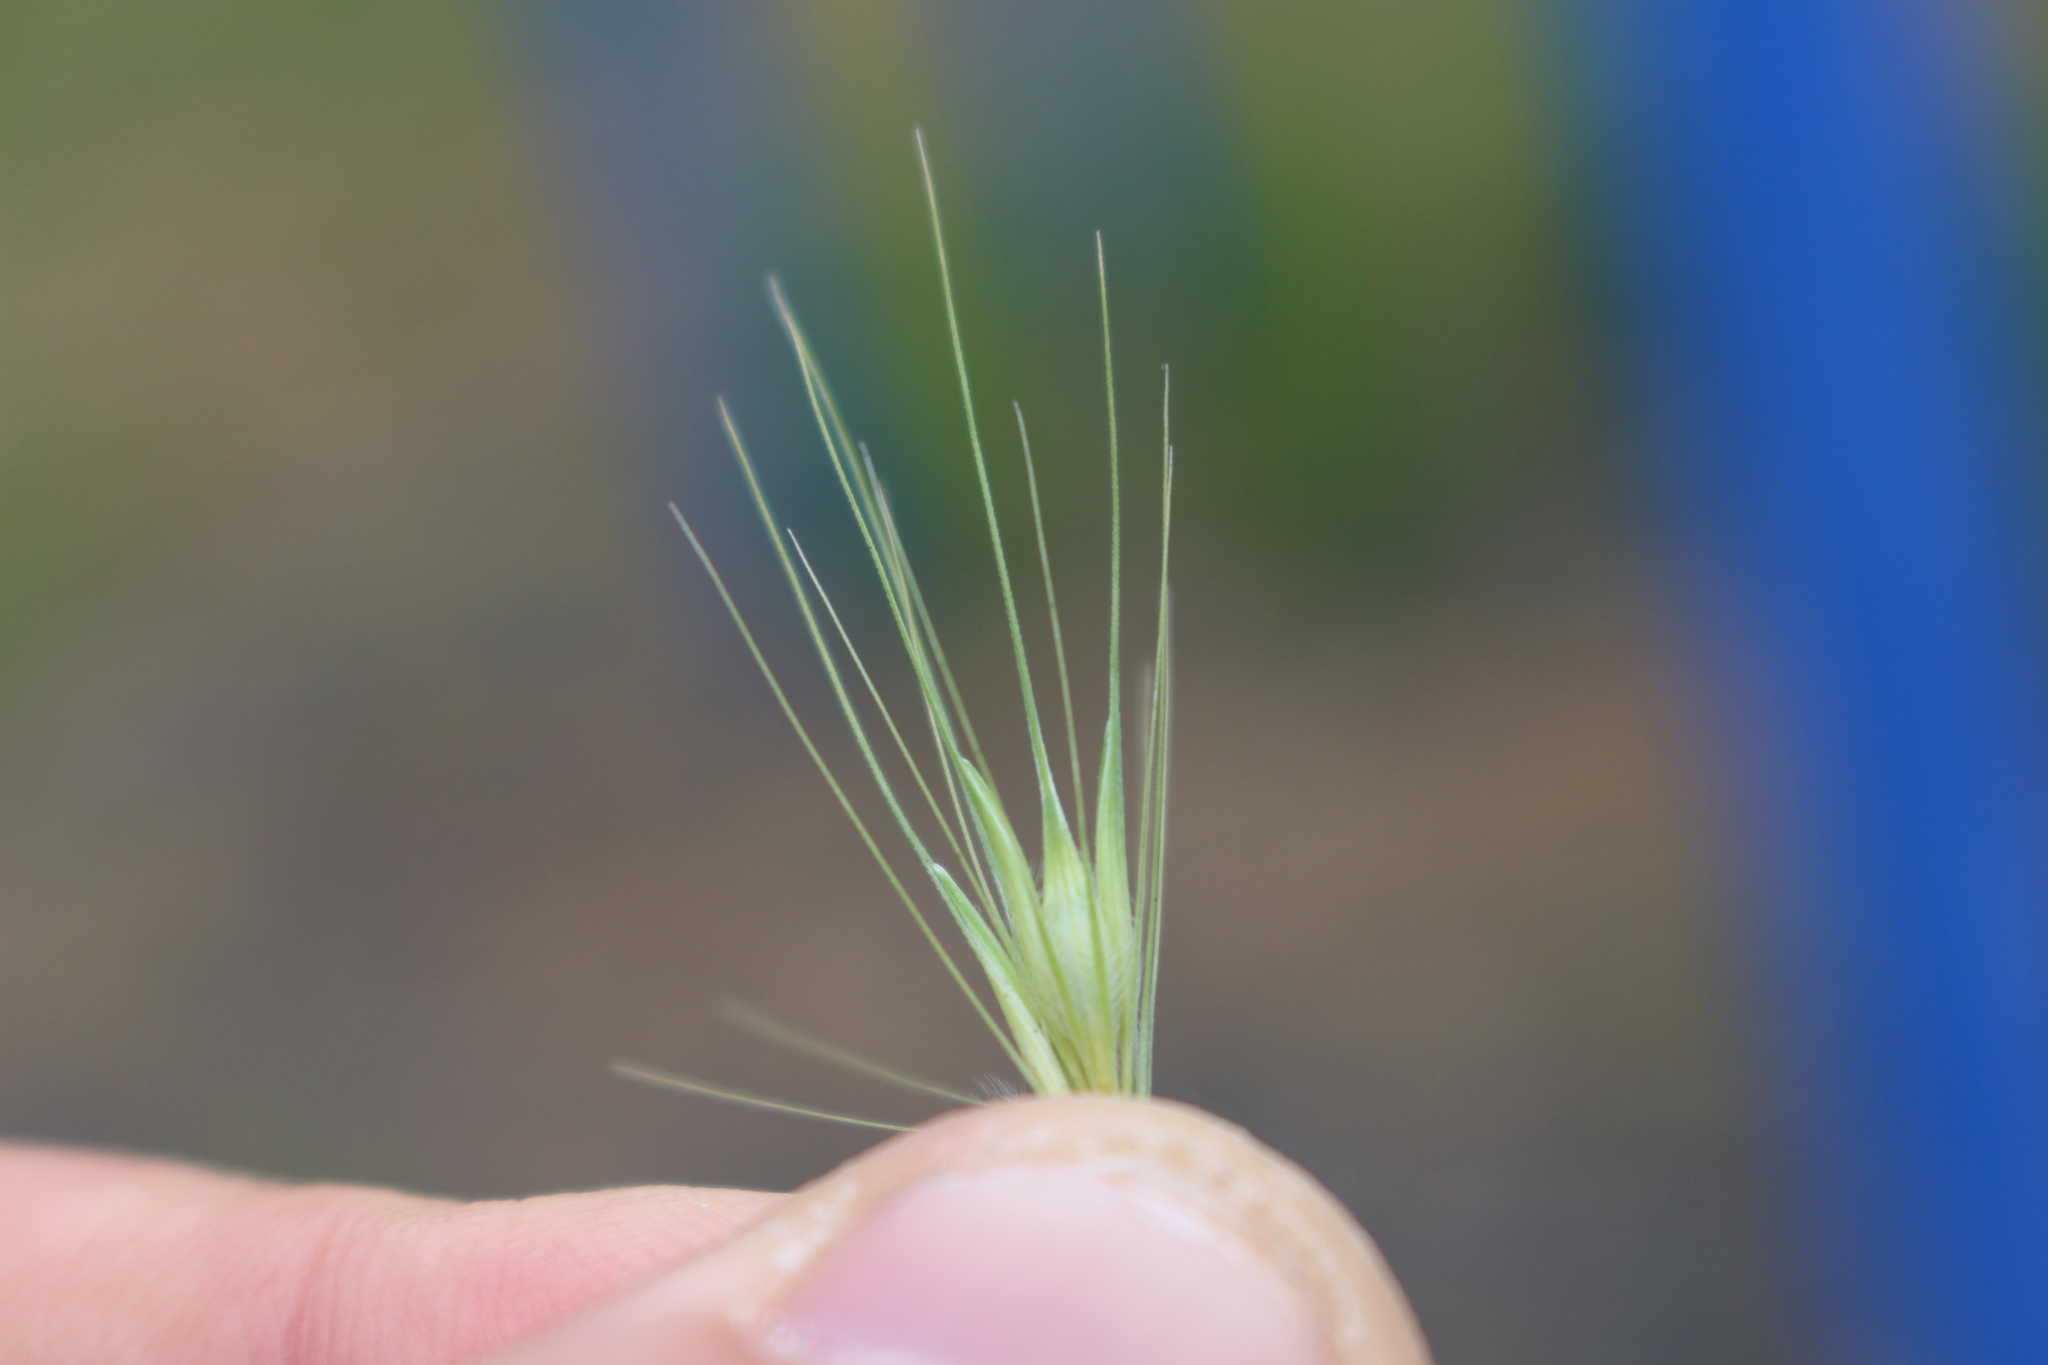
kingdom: Plantae
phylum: Tracheophyta
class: Liliopsida
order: Poales
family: Poaceae
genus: Hordeum
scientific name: Hordeum murinum
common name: Wall barley
